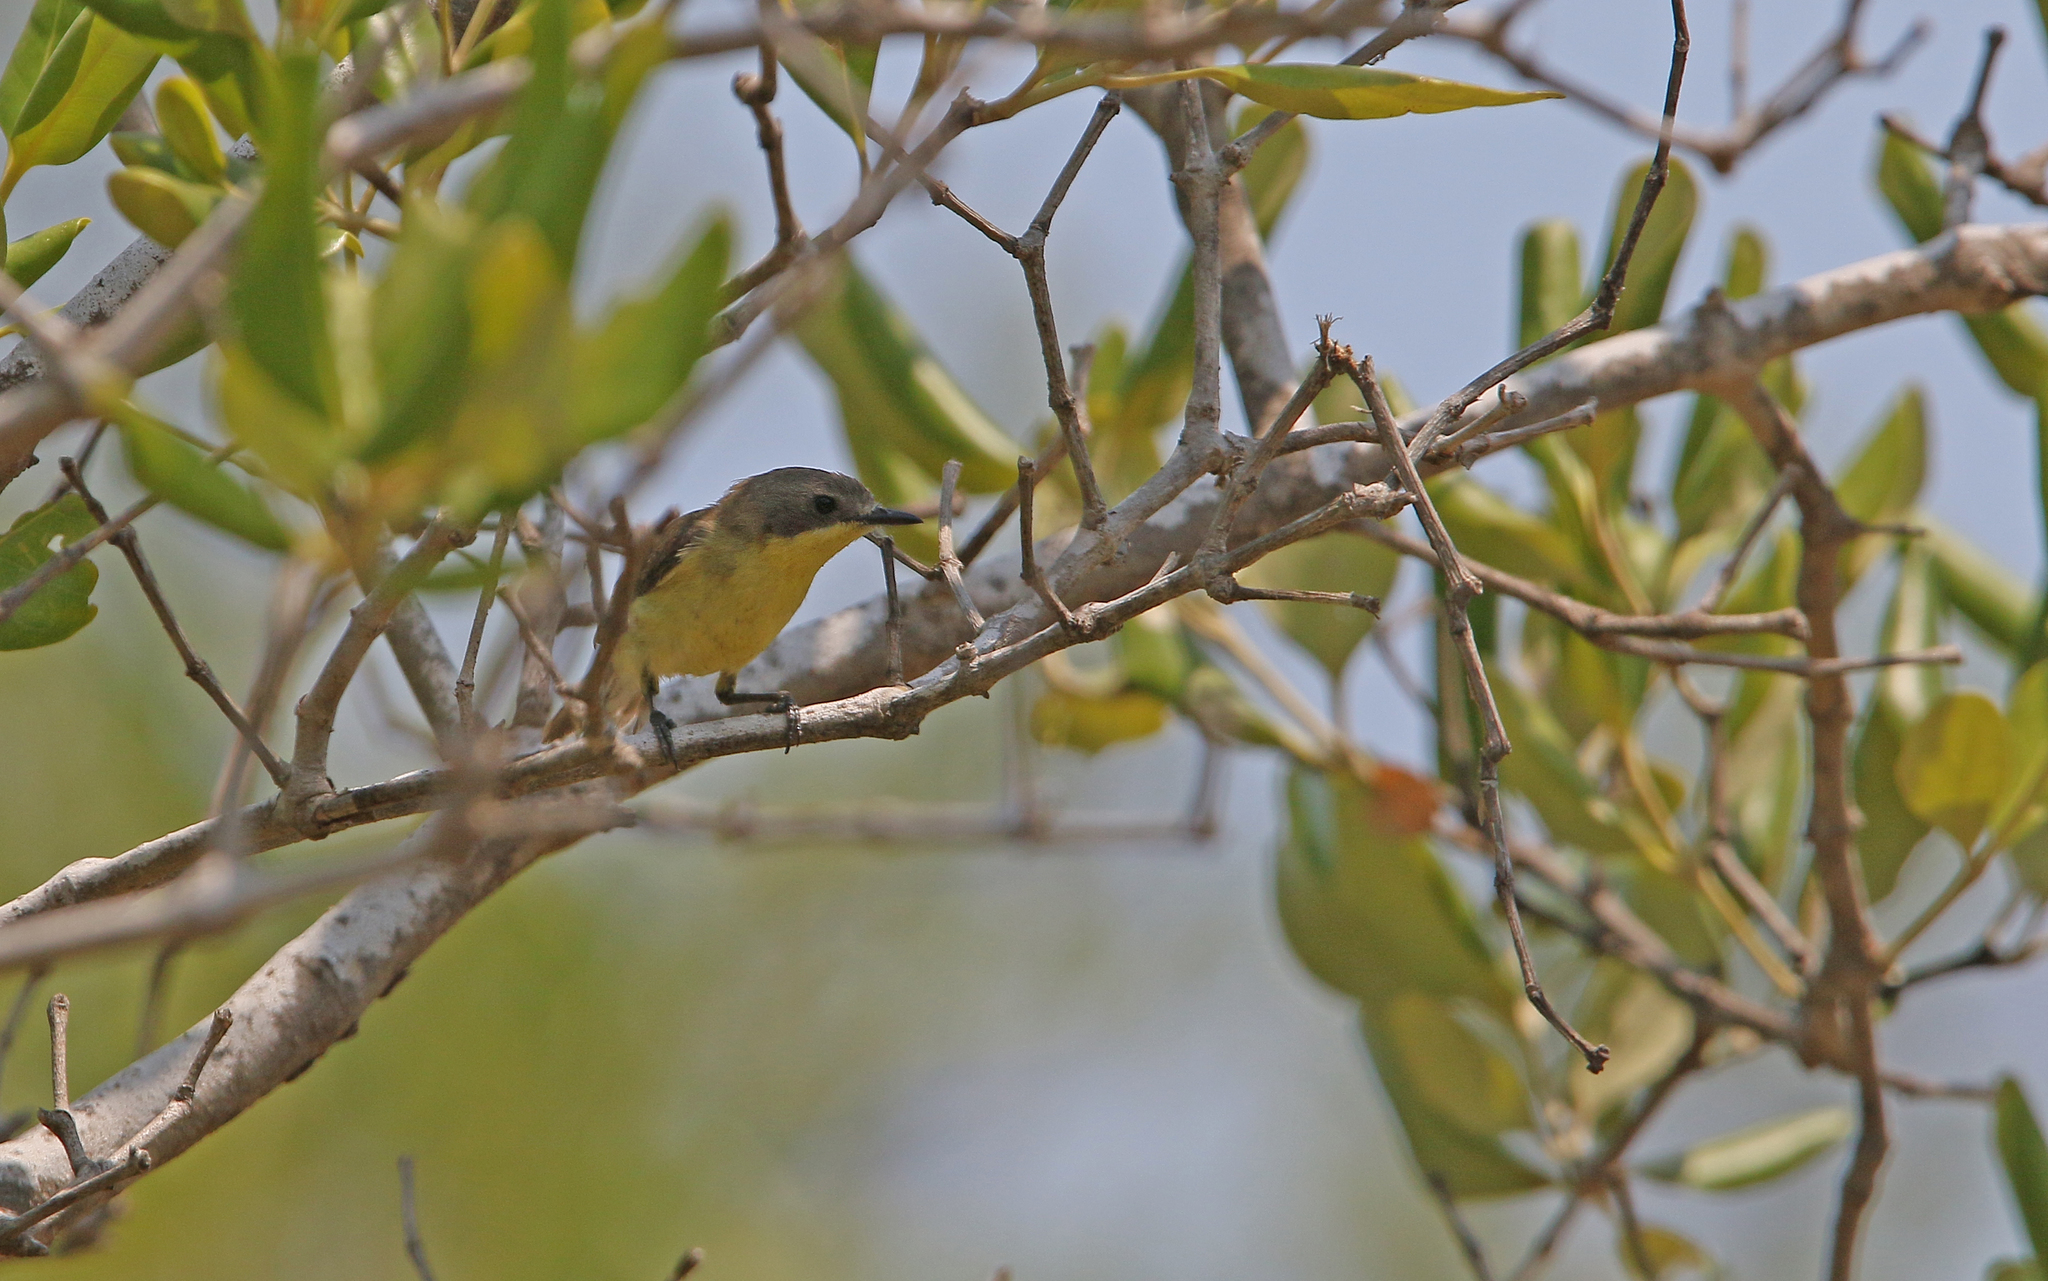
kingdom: Animalia
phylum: Chordata
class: Aves
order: Passeriformes
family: Acanthizidae
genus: Gerygone
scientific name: Gerygone sulphurea
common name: Golden-bellied gerygone
